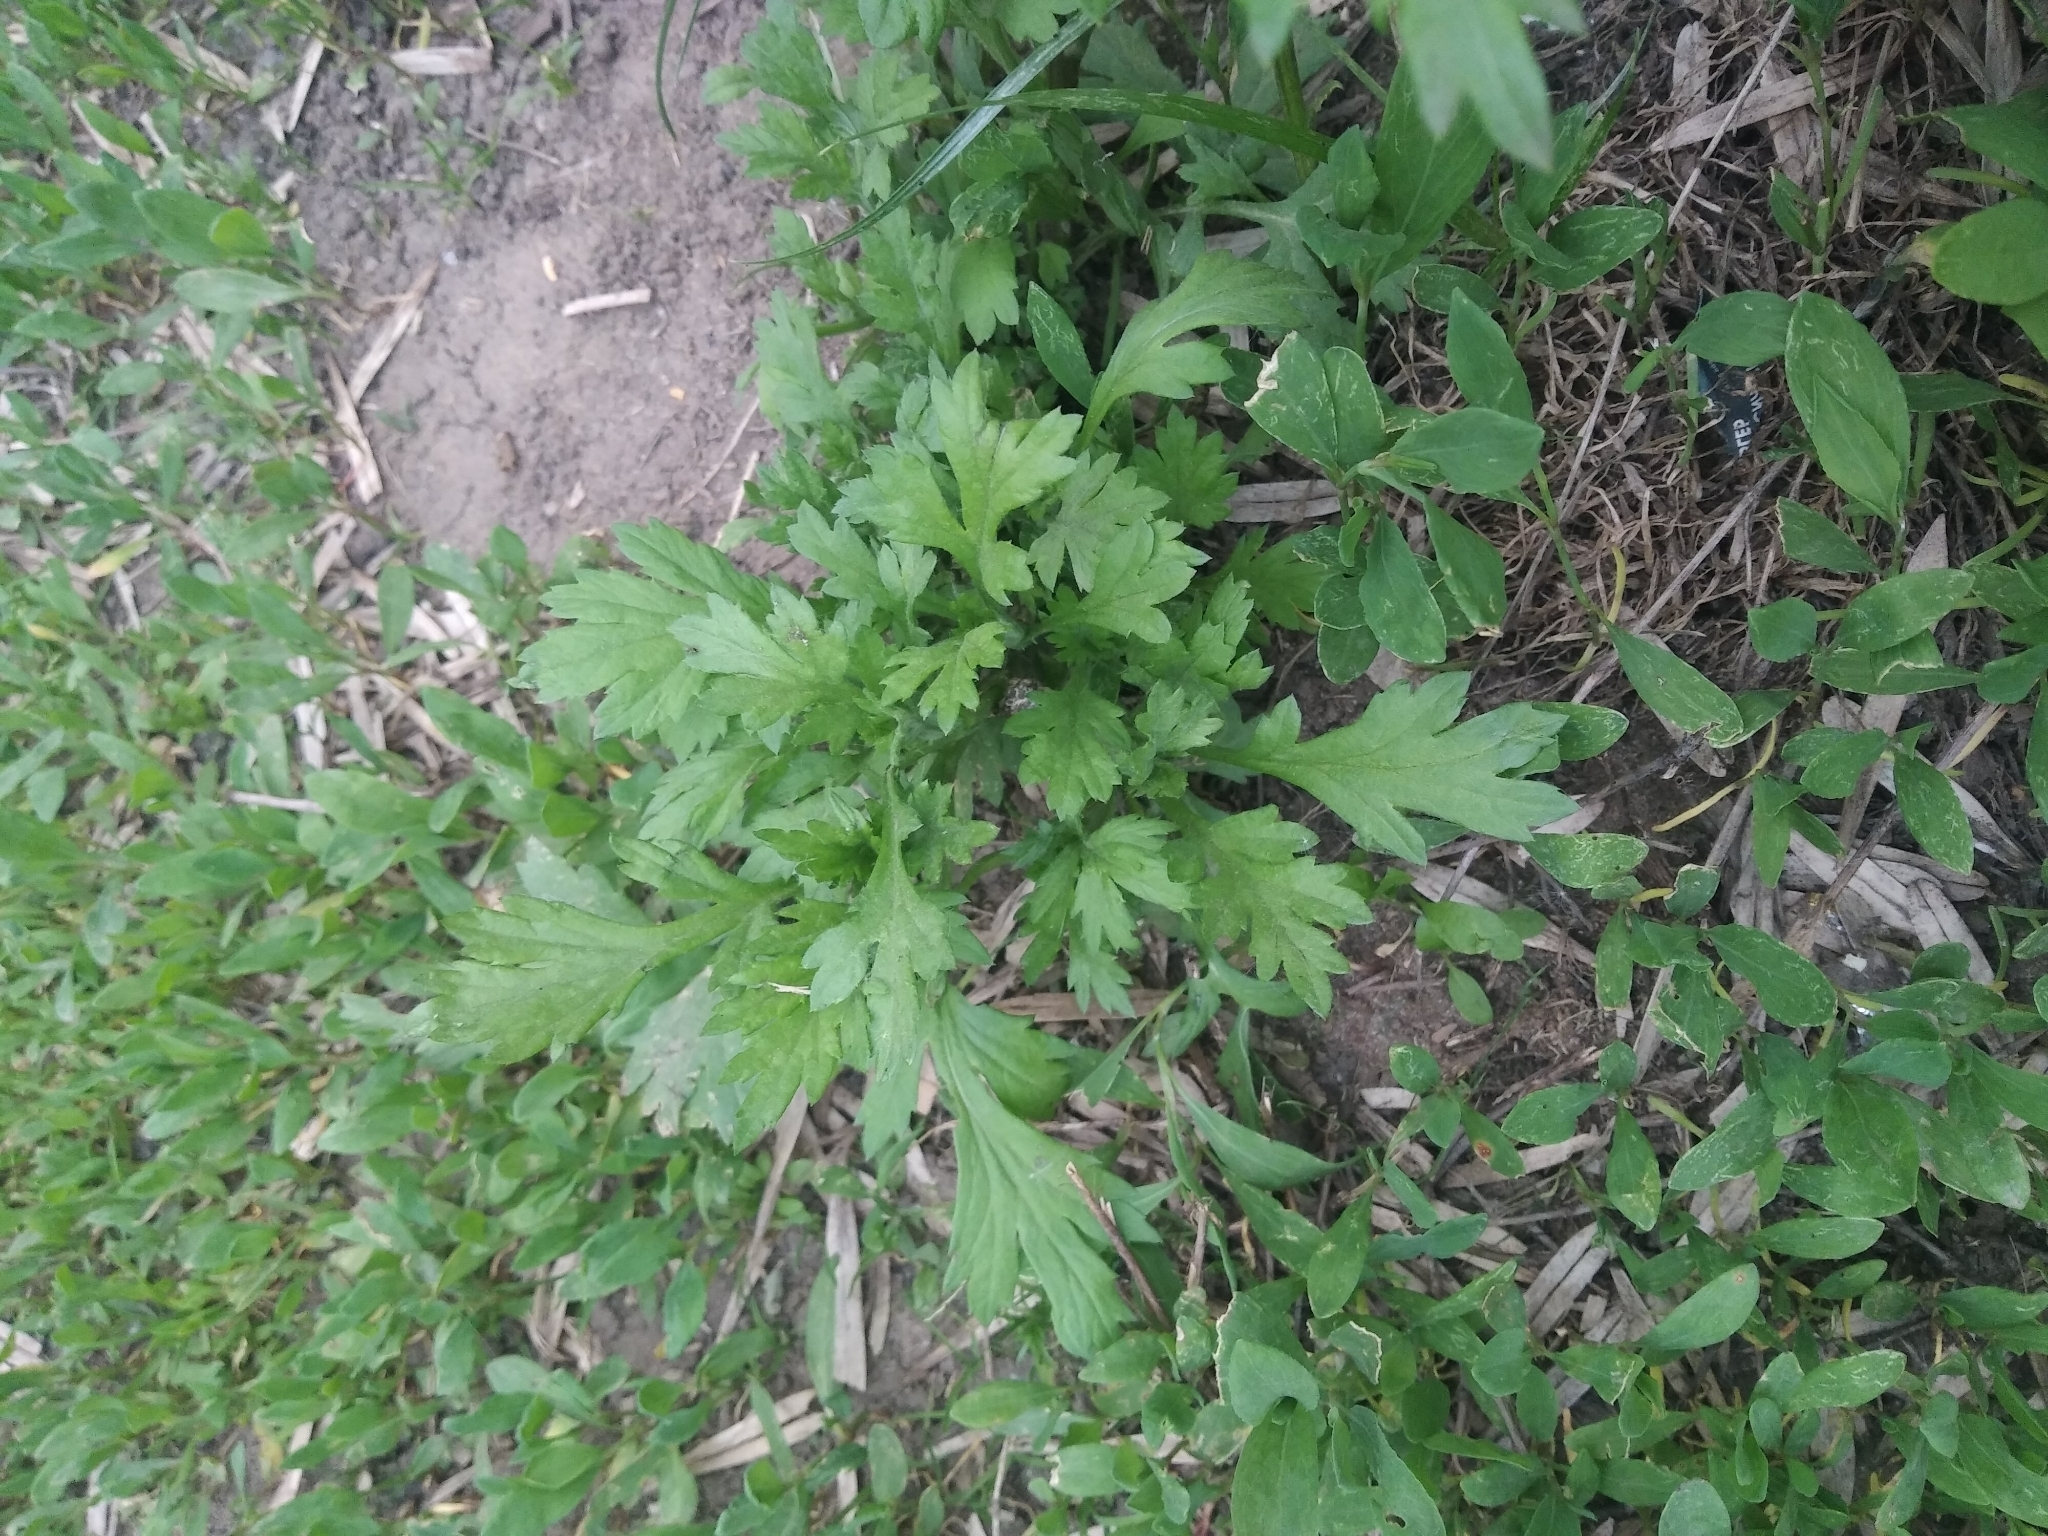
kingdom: Plantae
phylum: Tracheophyta
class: Magnoliopsida
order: Asterales
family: Asteraceae
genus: Artemisia
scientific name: Artemisia vulgaris
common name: Mugwort
